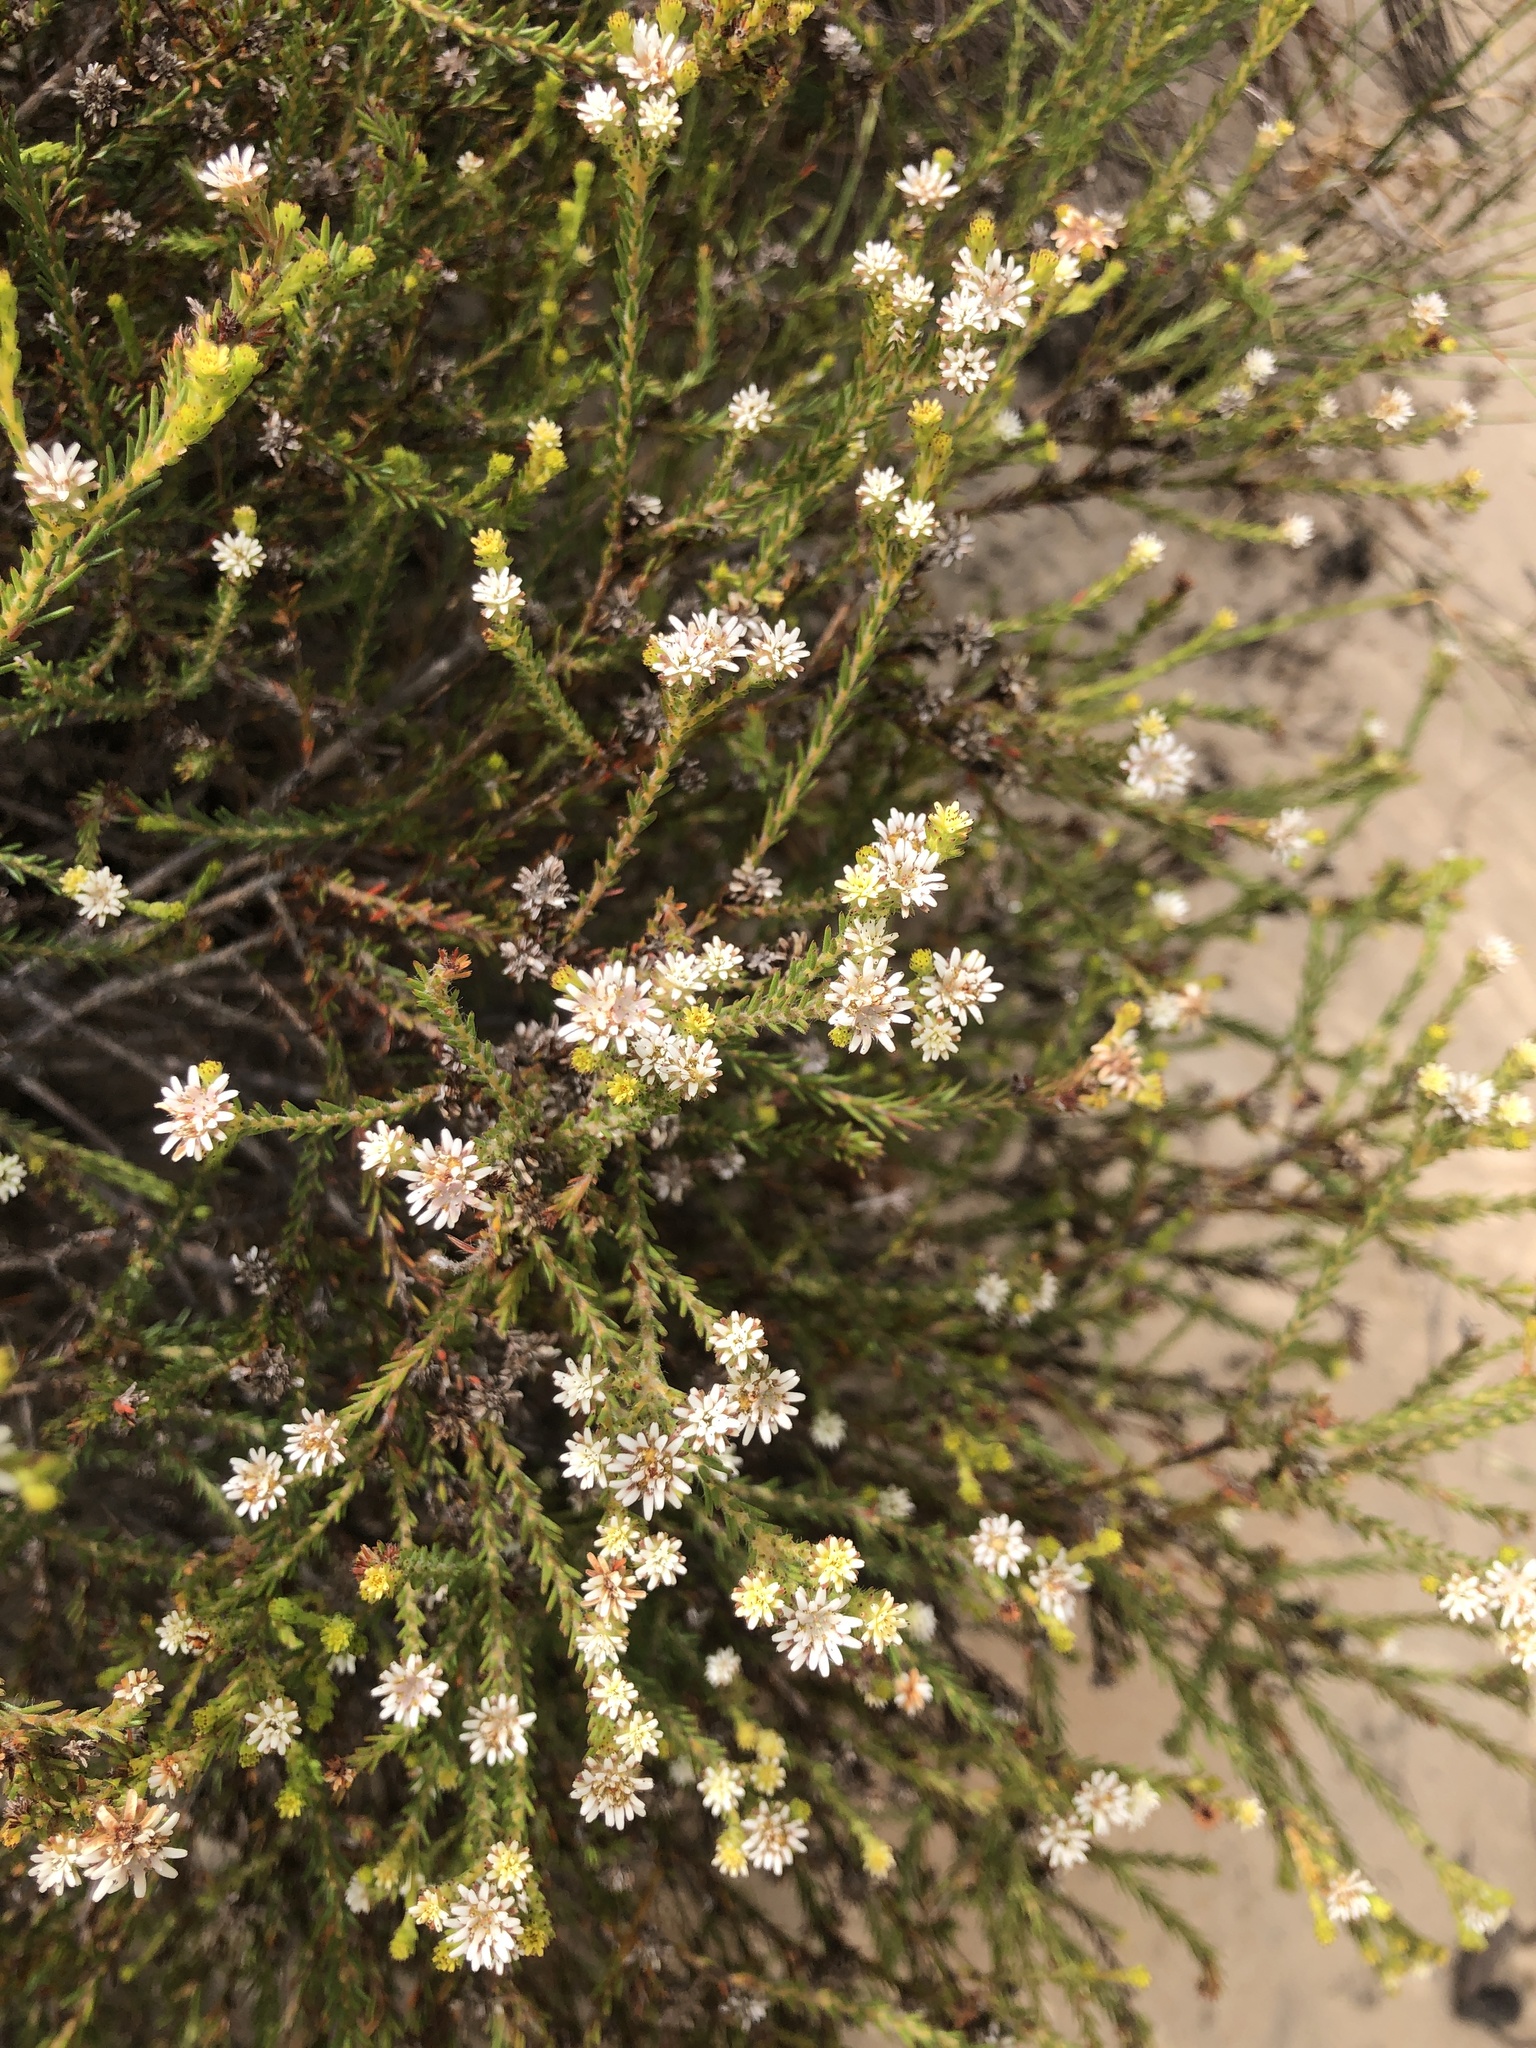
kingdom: Plantae
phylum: Tracheophyta
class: Magnoliopsida
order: Bruniales
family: Bruniaceae
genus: Staavia
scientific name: Staavia radiata
